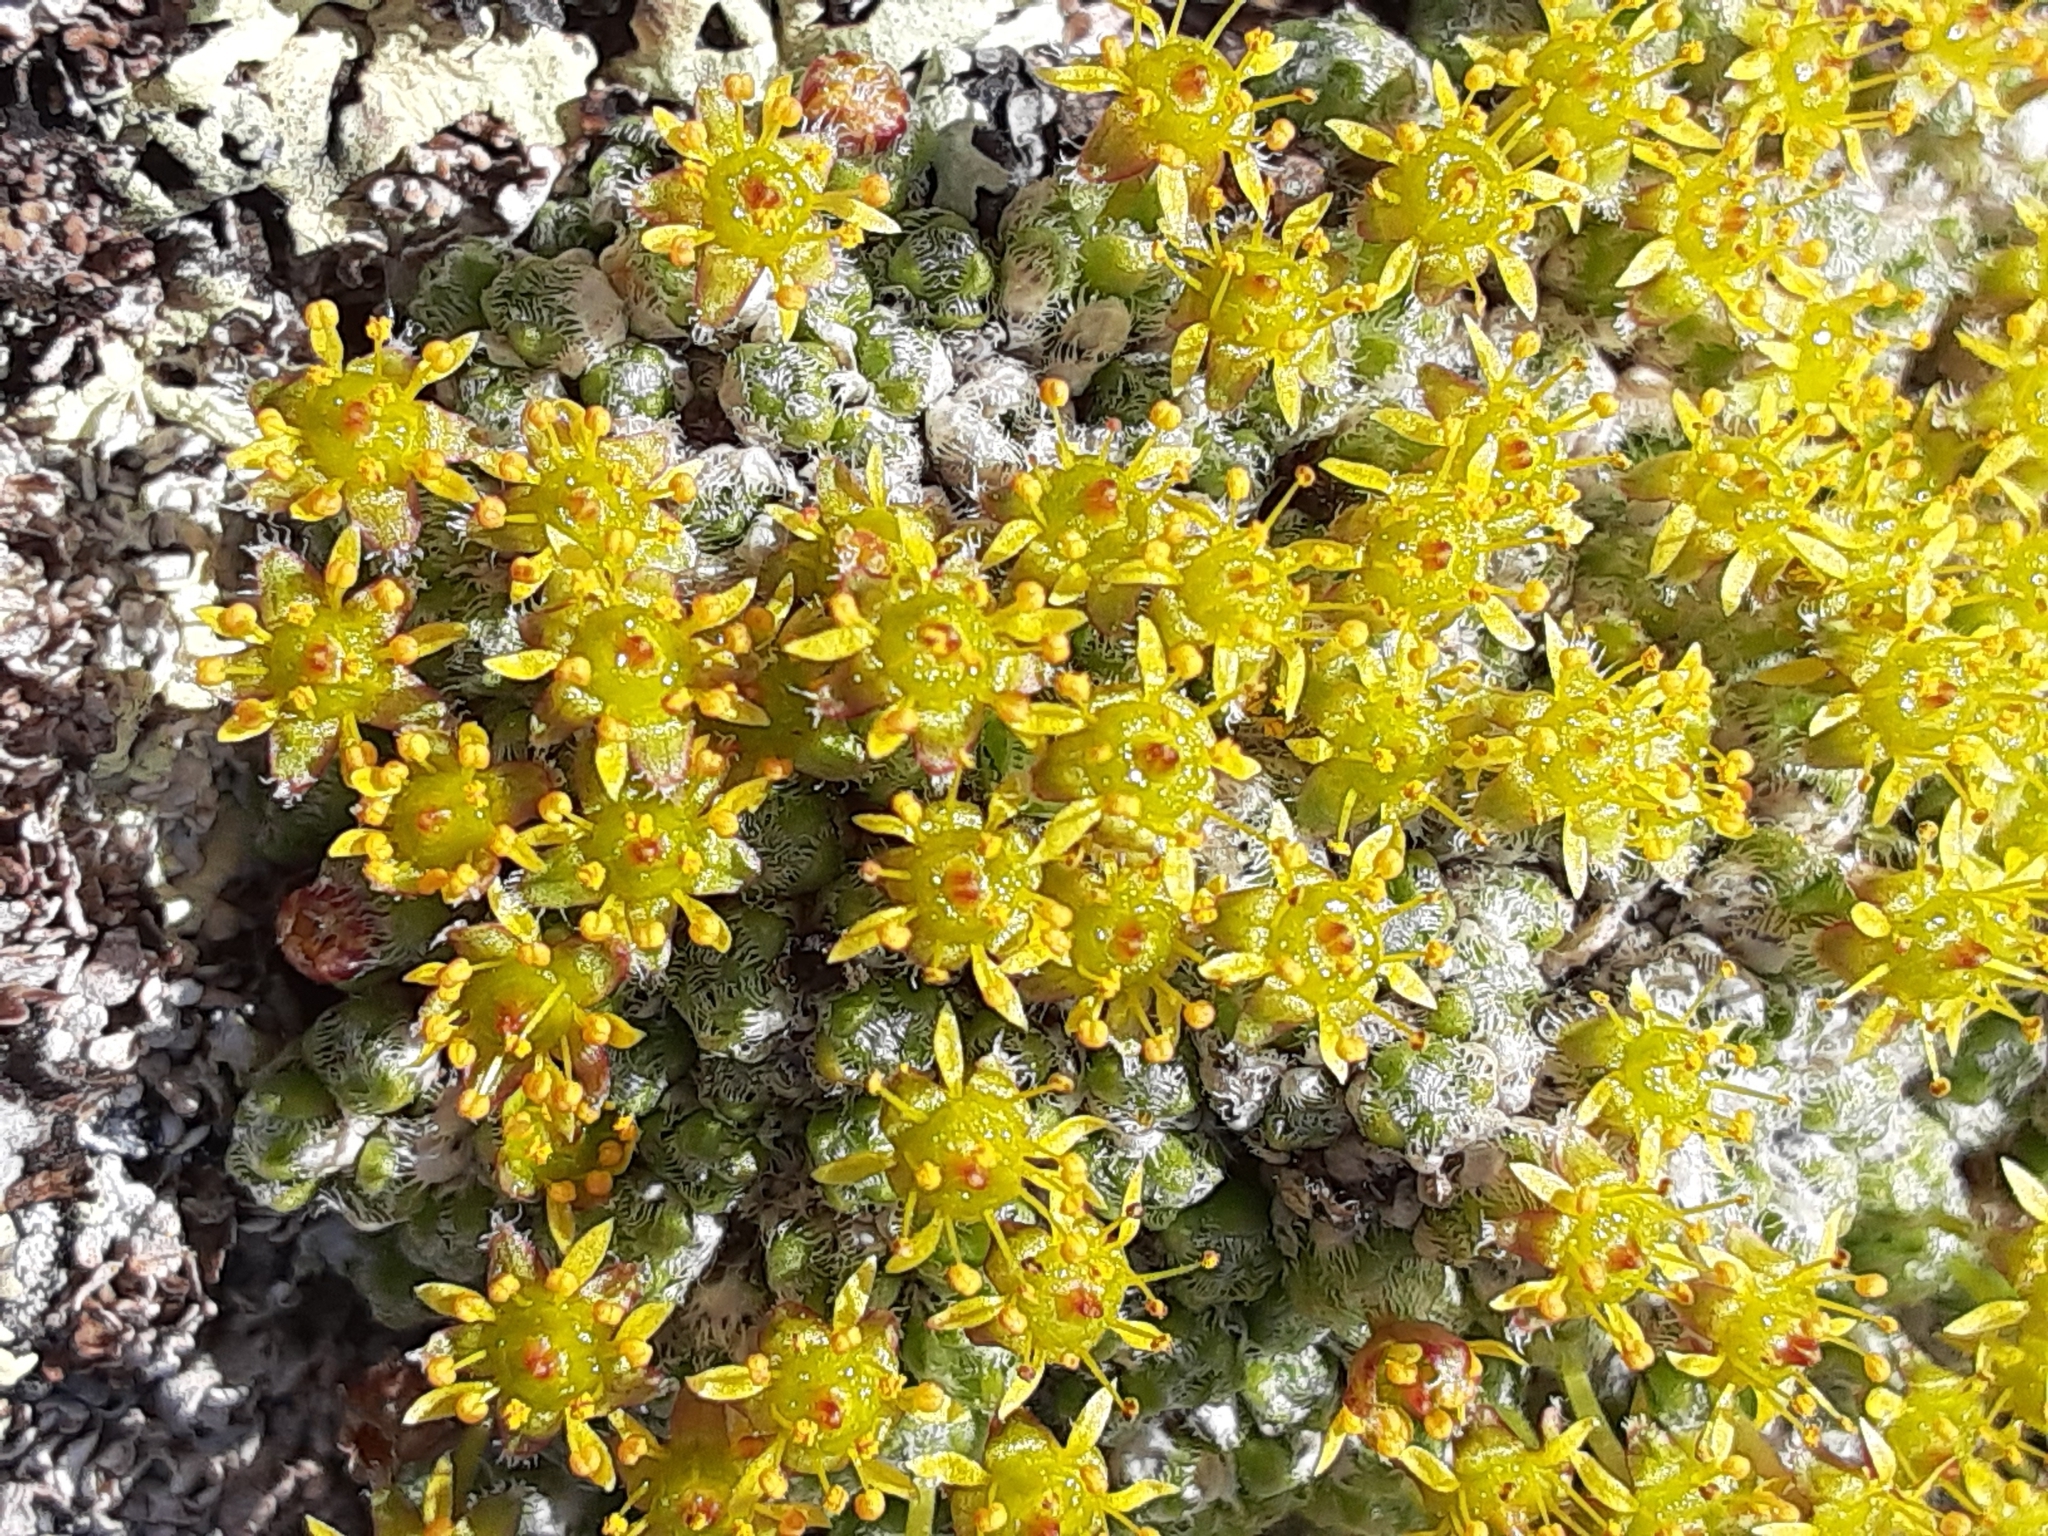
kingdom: Plantae
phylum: Tracheophyta
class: Magnoliopsida
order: Saxifragales
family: Saxifragaceae
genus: Saxifraga
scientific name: Saxifraga eschscholtzii
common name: Eschscholtz's saxifrage
